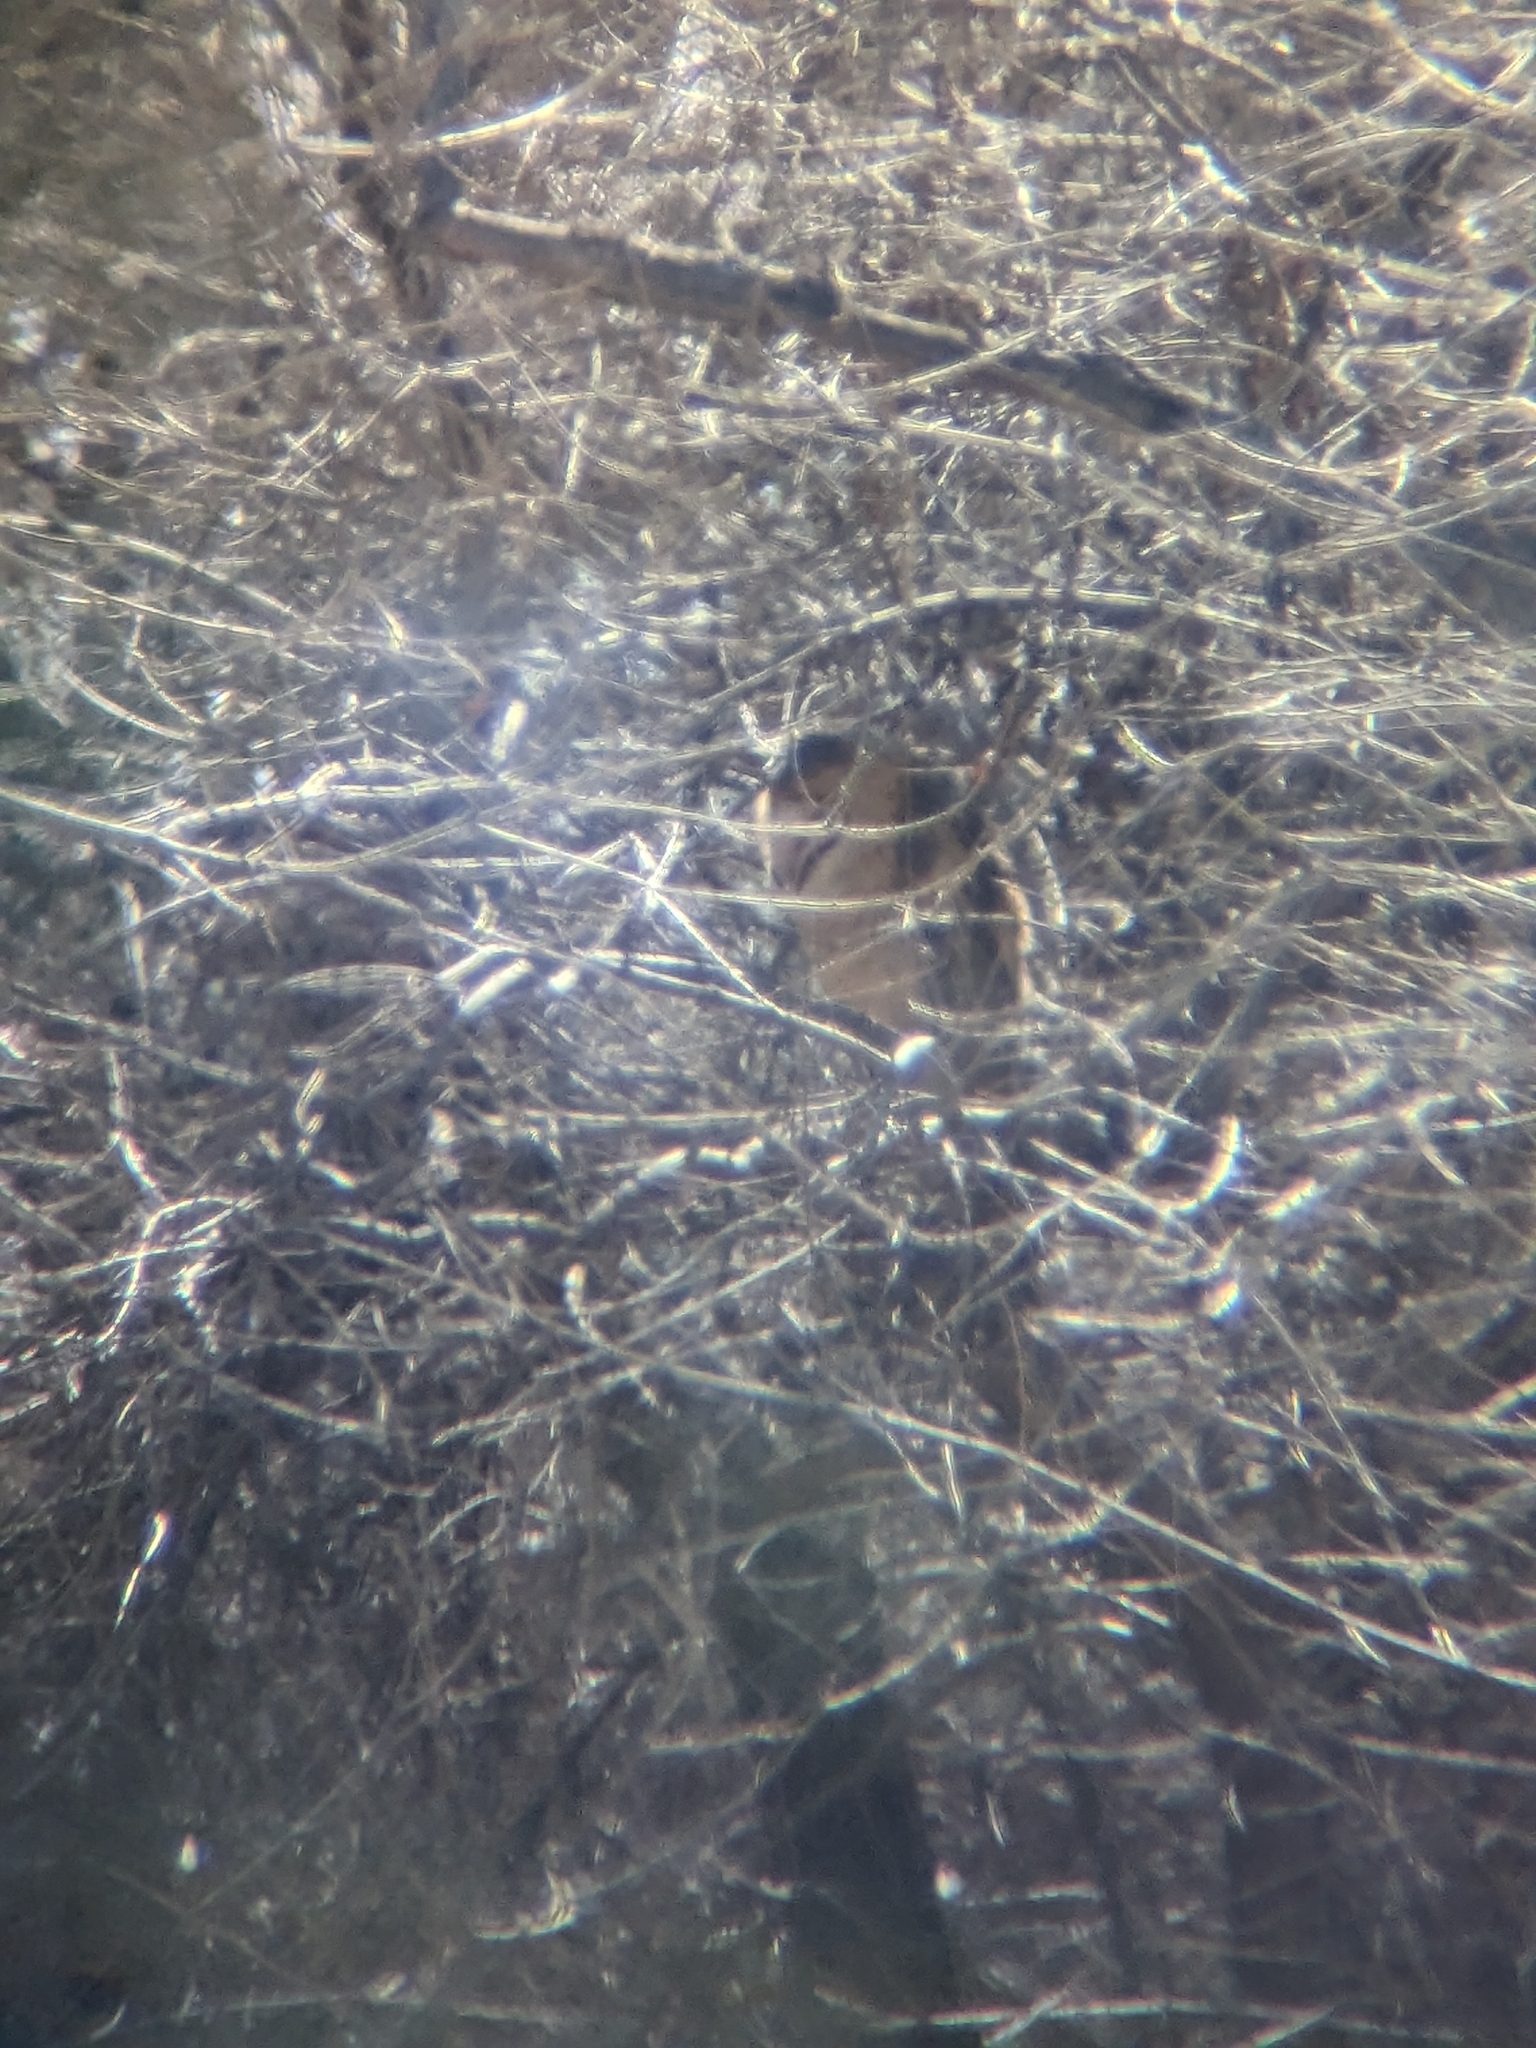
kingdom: Animalia
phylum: Chordata
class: Aves
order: Strigiformes
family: Tytonidae
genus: Tyto
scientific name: Tyto alba
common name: Barn owl
